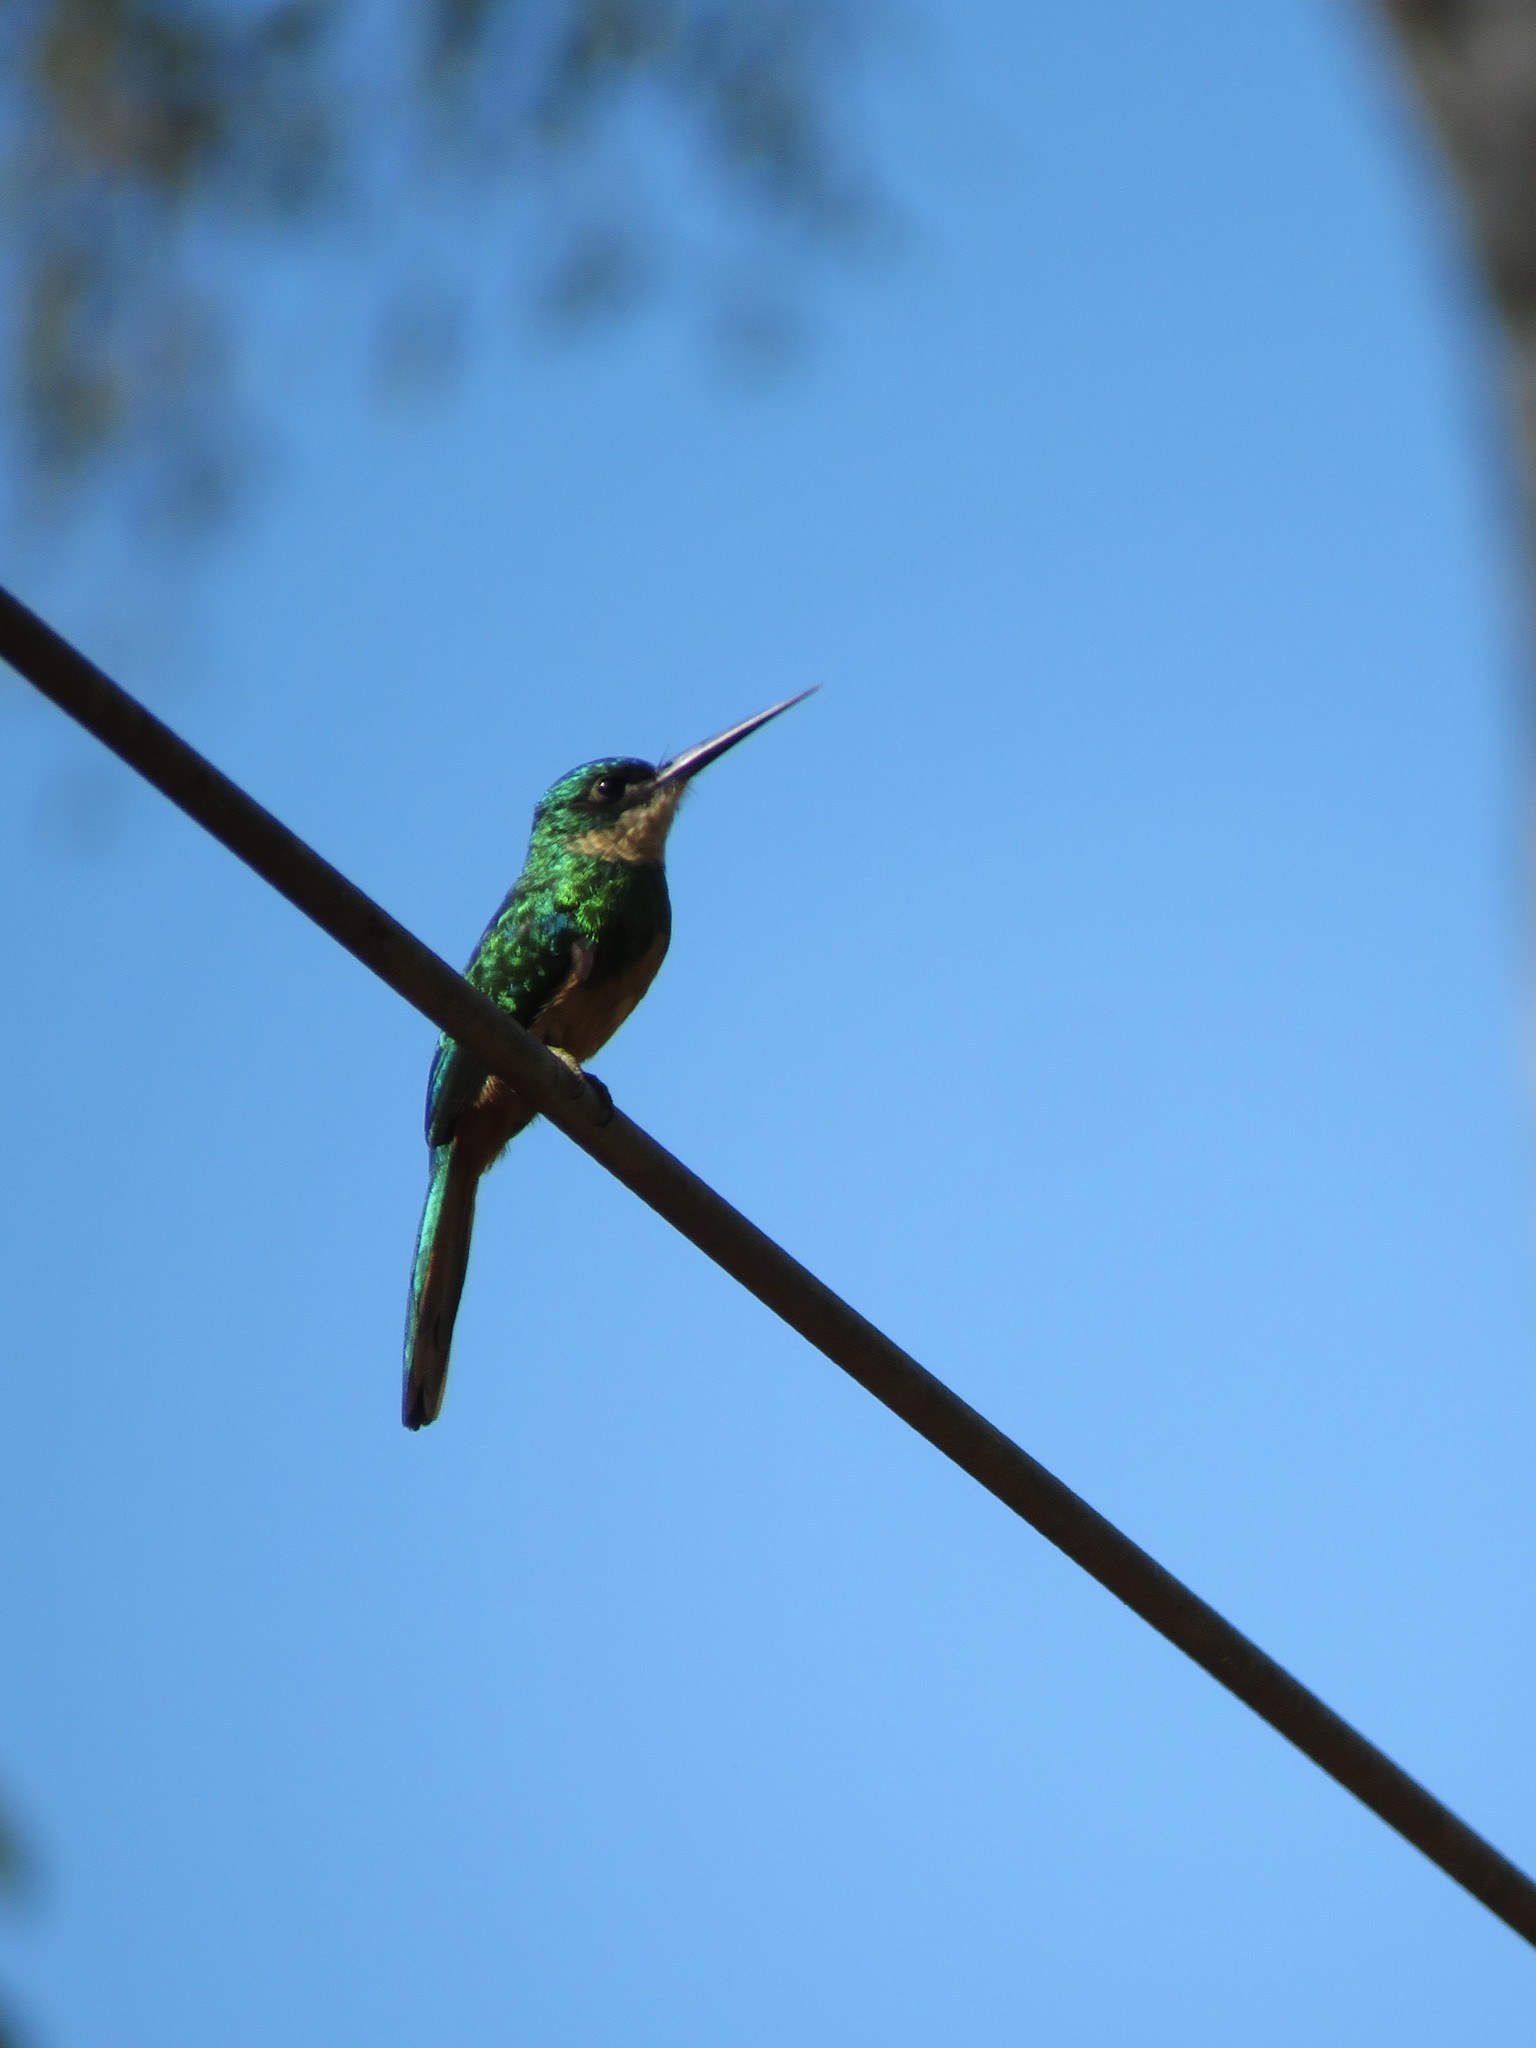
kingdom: Animalia
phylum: Chordata
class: Aves
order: Piciformes
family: Galbulidae
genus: Galbula
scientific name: Galbula ruficauda
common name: Rufous-tailed jacamar
